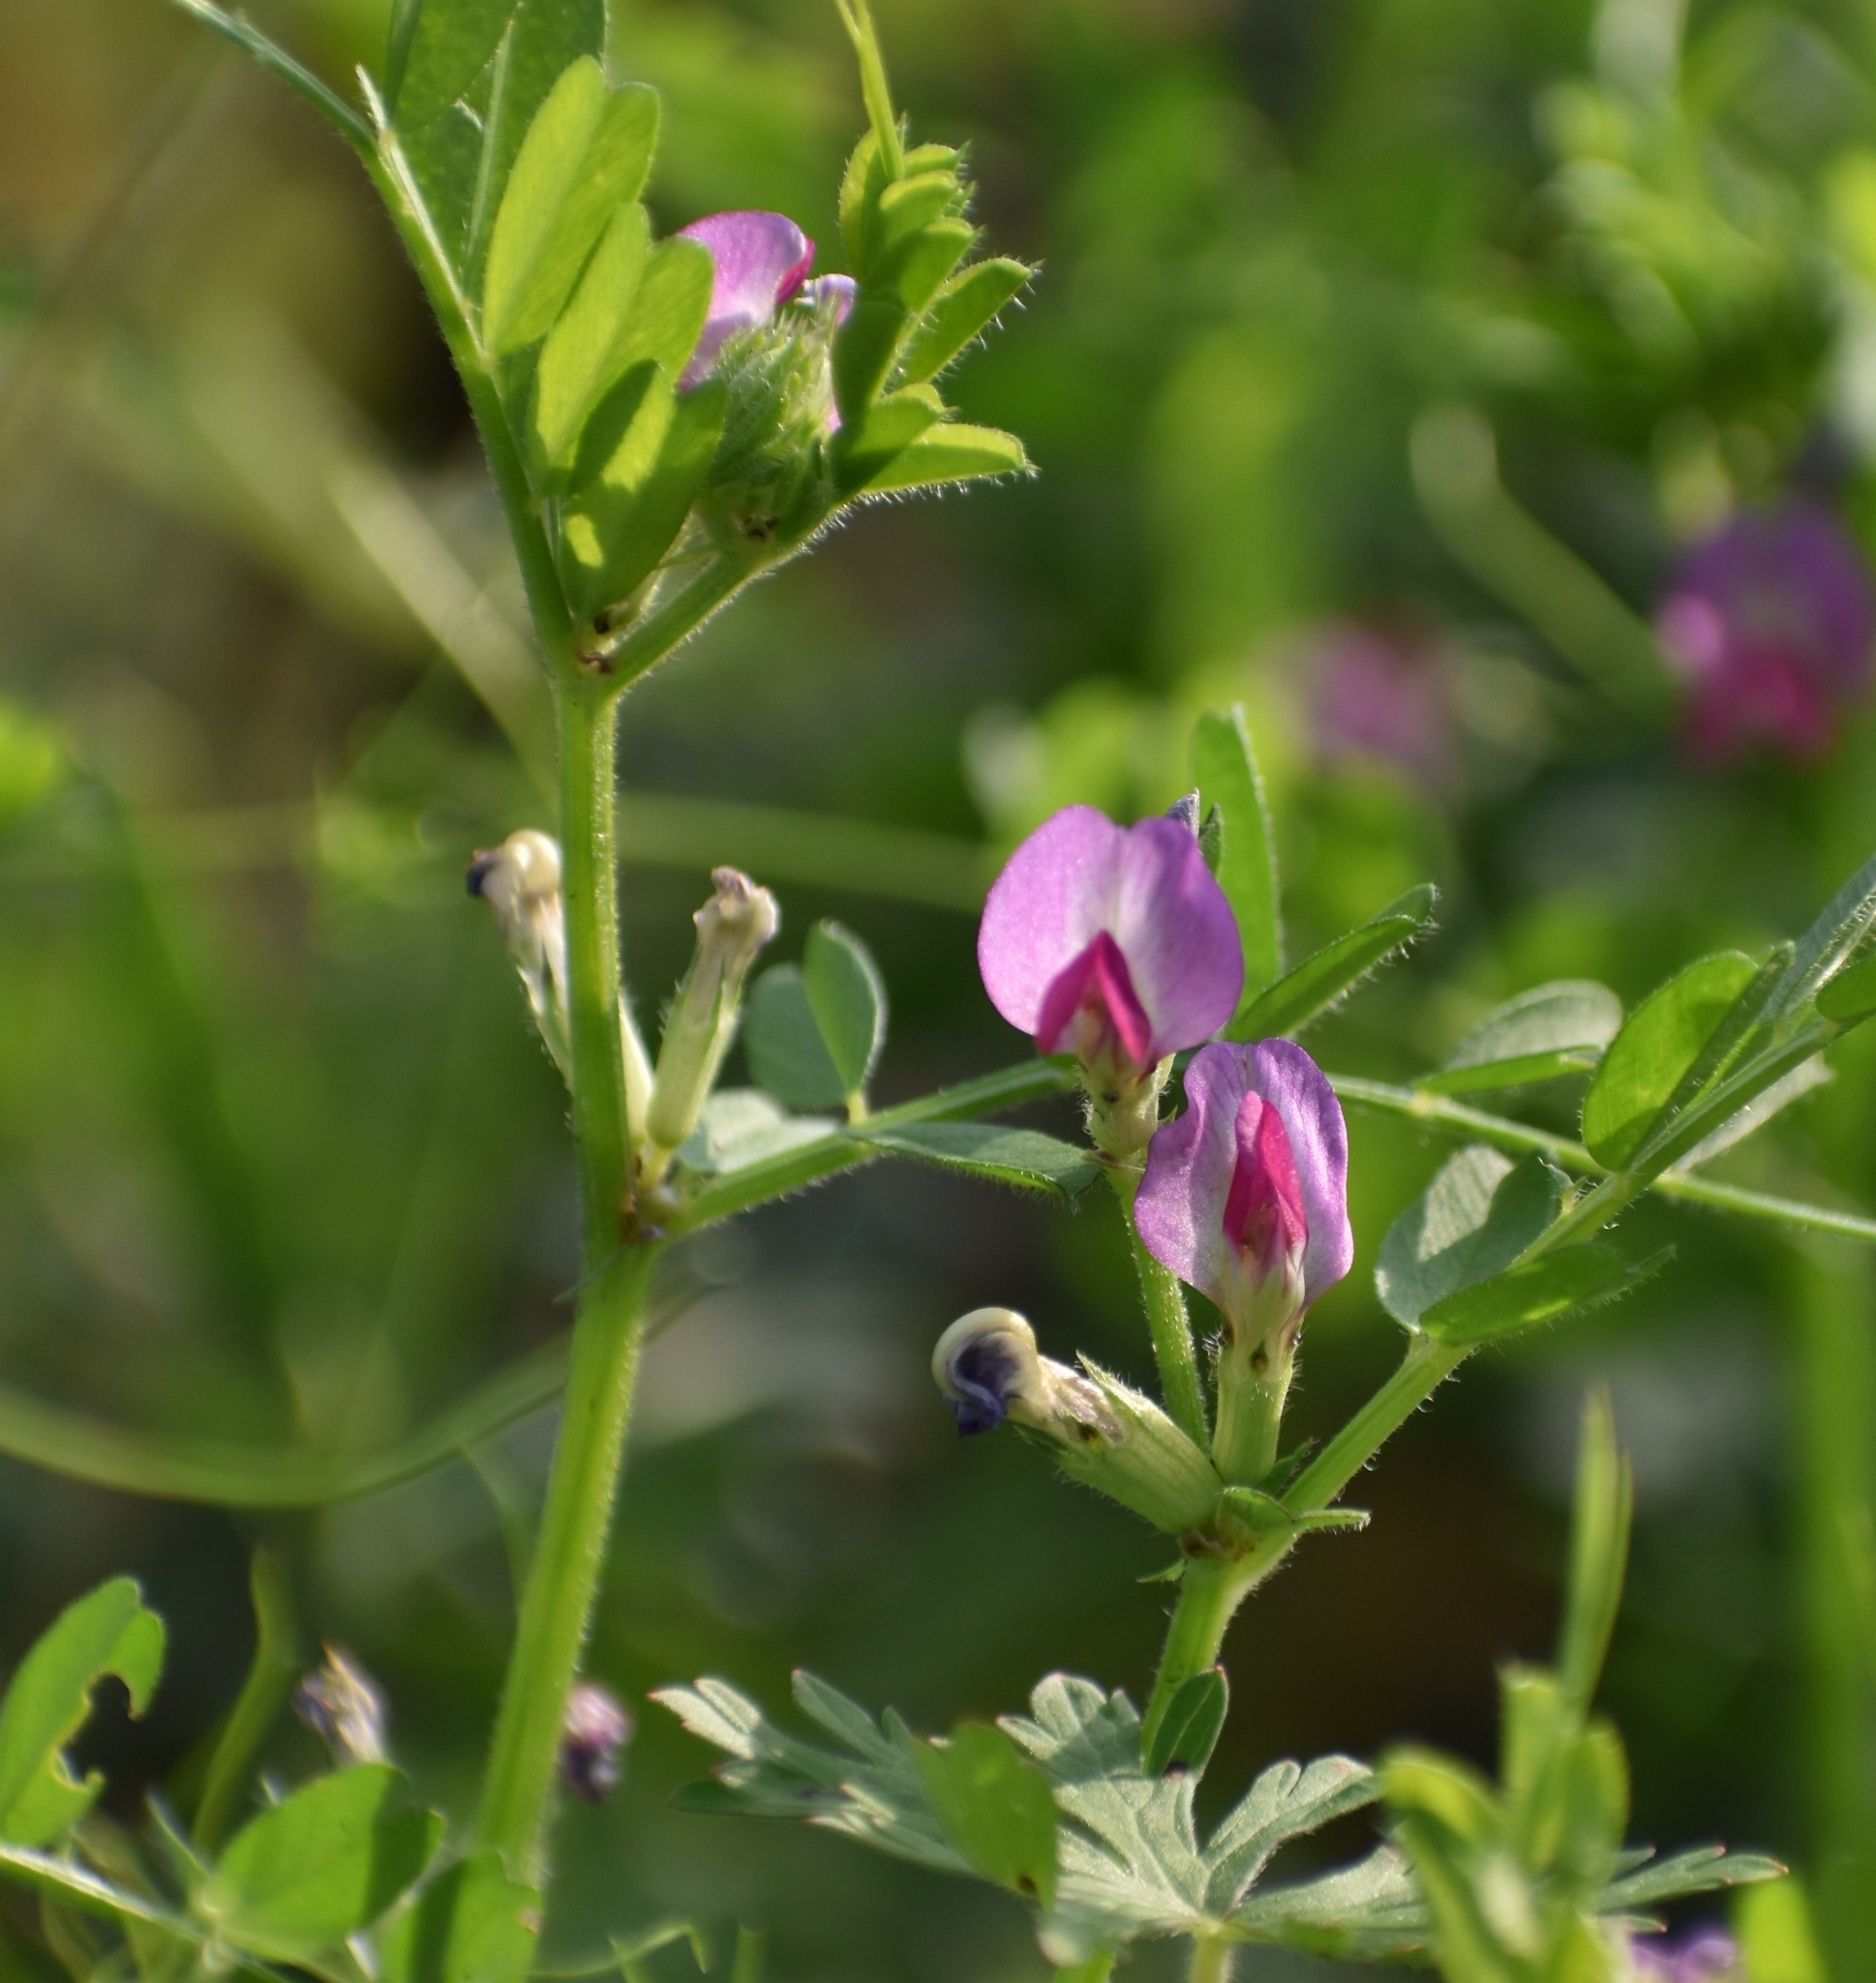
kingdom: Plantae
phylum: Tracheophyta
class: Magnoliopsida
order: Fabales
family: Fabaceae
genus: Vicia
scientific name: Vicia sativa
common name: Garden vetch
